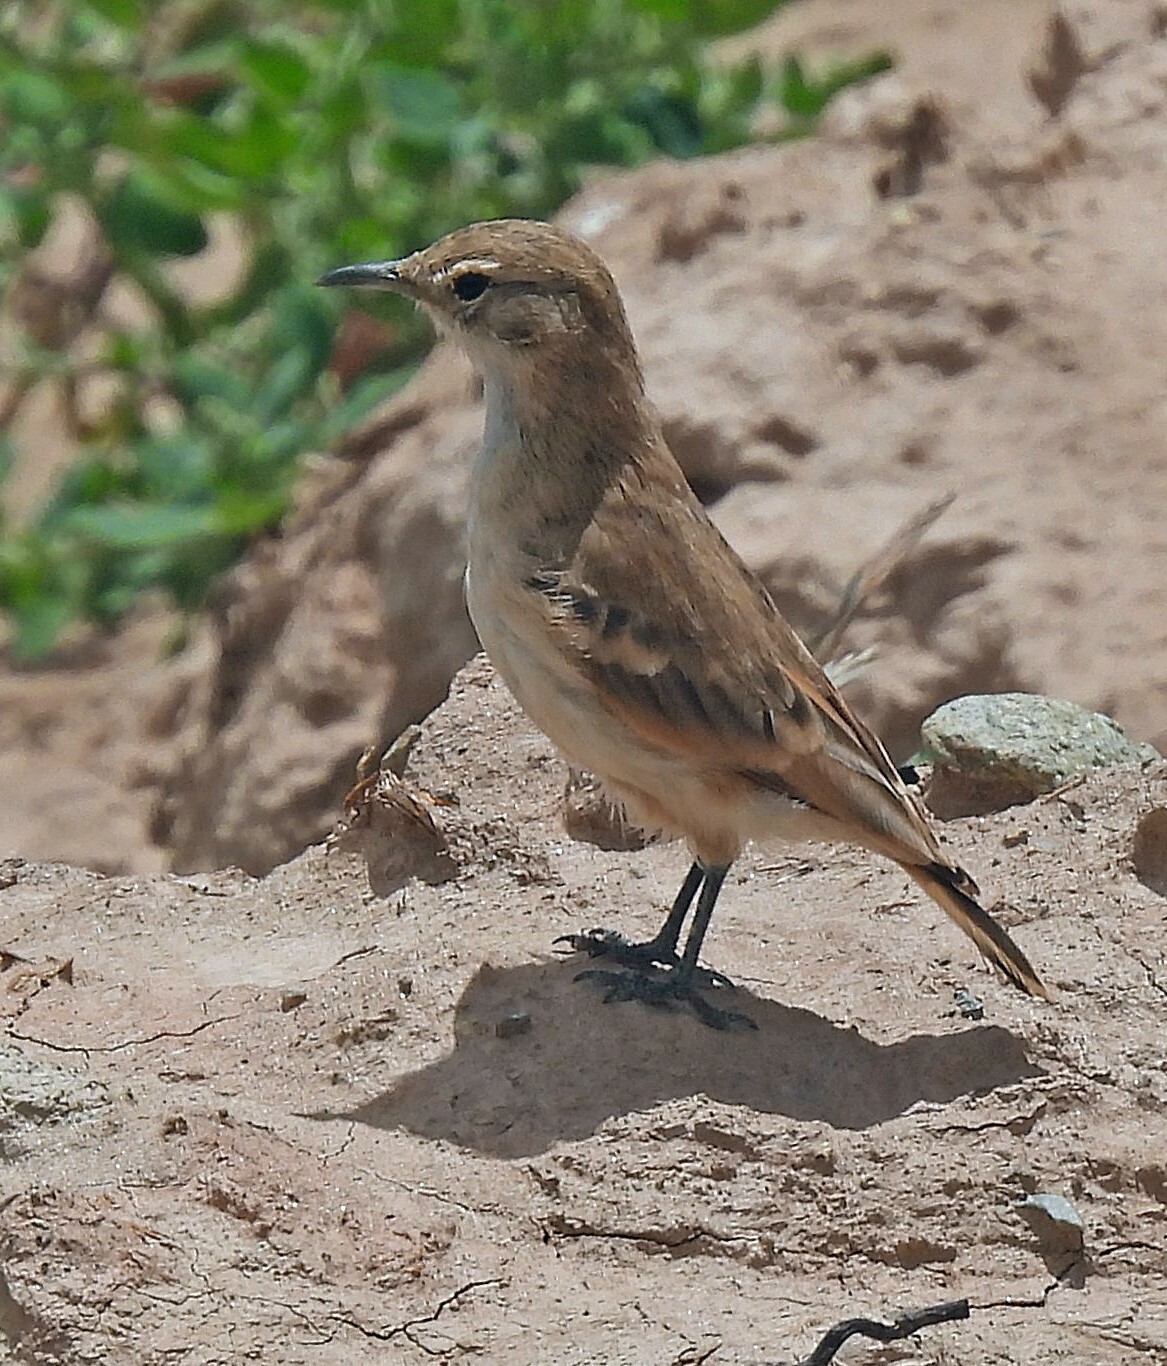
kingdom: Animalia
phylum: Chordata
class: Aves
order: Passeriformes
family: Furnariidae
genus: Geositta
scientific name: Geositta punensis
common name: Puna miner
